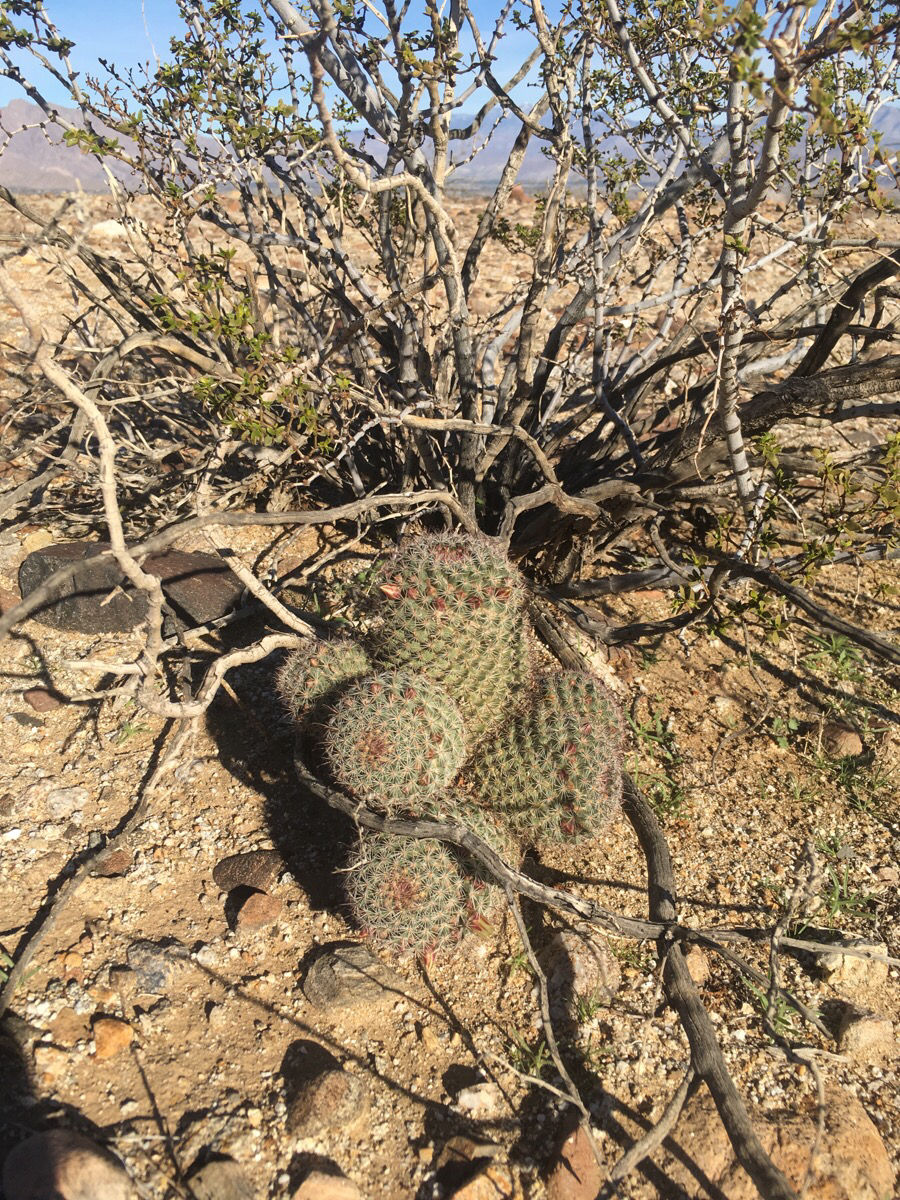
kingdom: Plantae
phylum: Tracheophyta
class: Magnoliopsida
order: Caryophyllales
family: Cactaceae
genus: Cochemiea
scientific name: Cochemiea dioica
